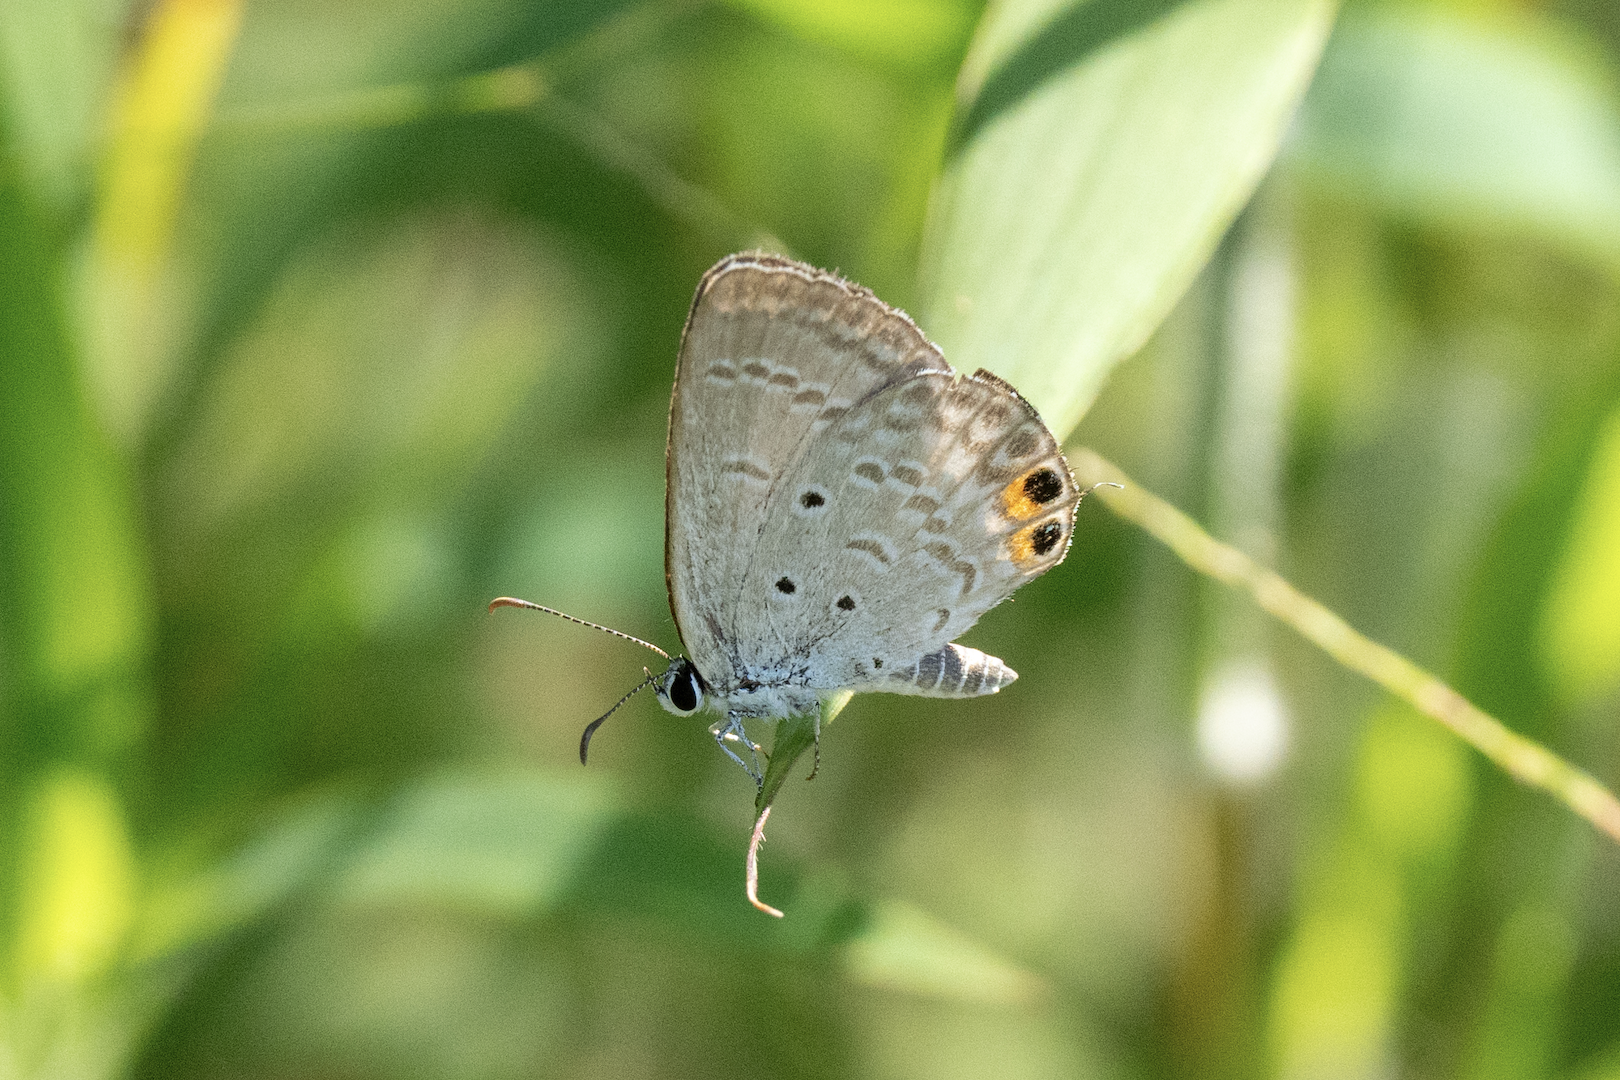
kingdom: Animalia
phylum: Arthropoda
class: Insecta
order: Lepidoptera
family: Lycaenidae
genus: Euchrysops
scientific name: Euchrysops cnejus
